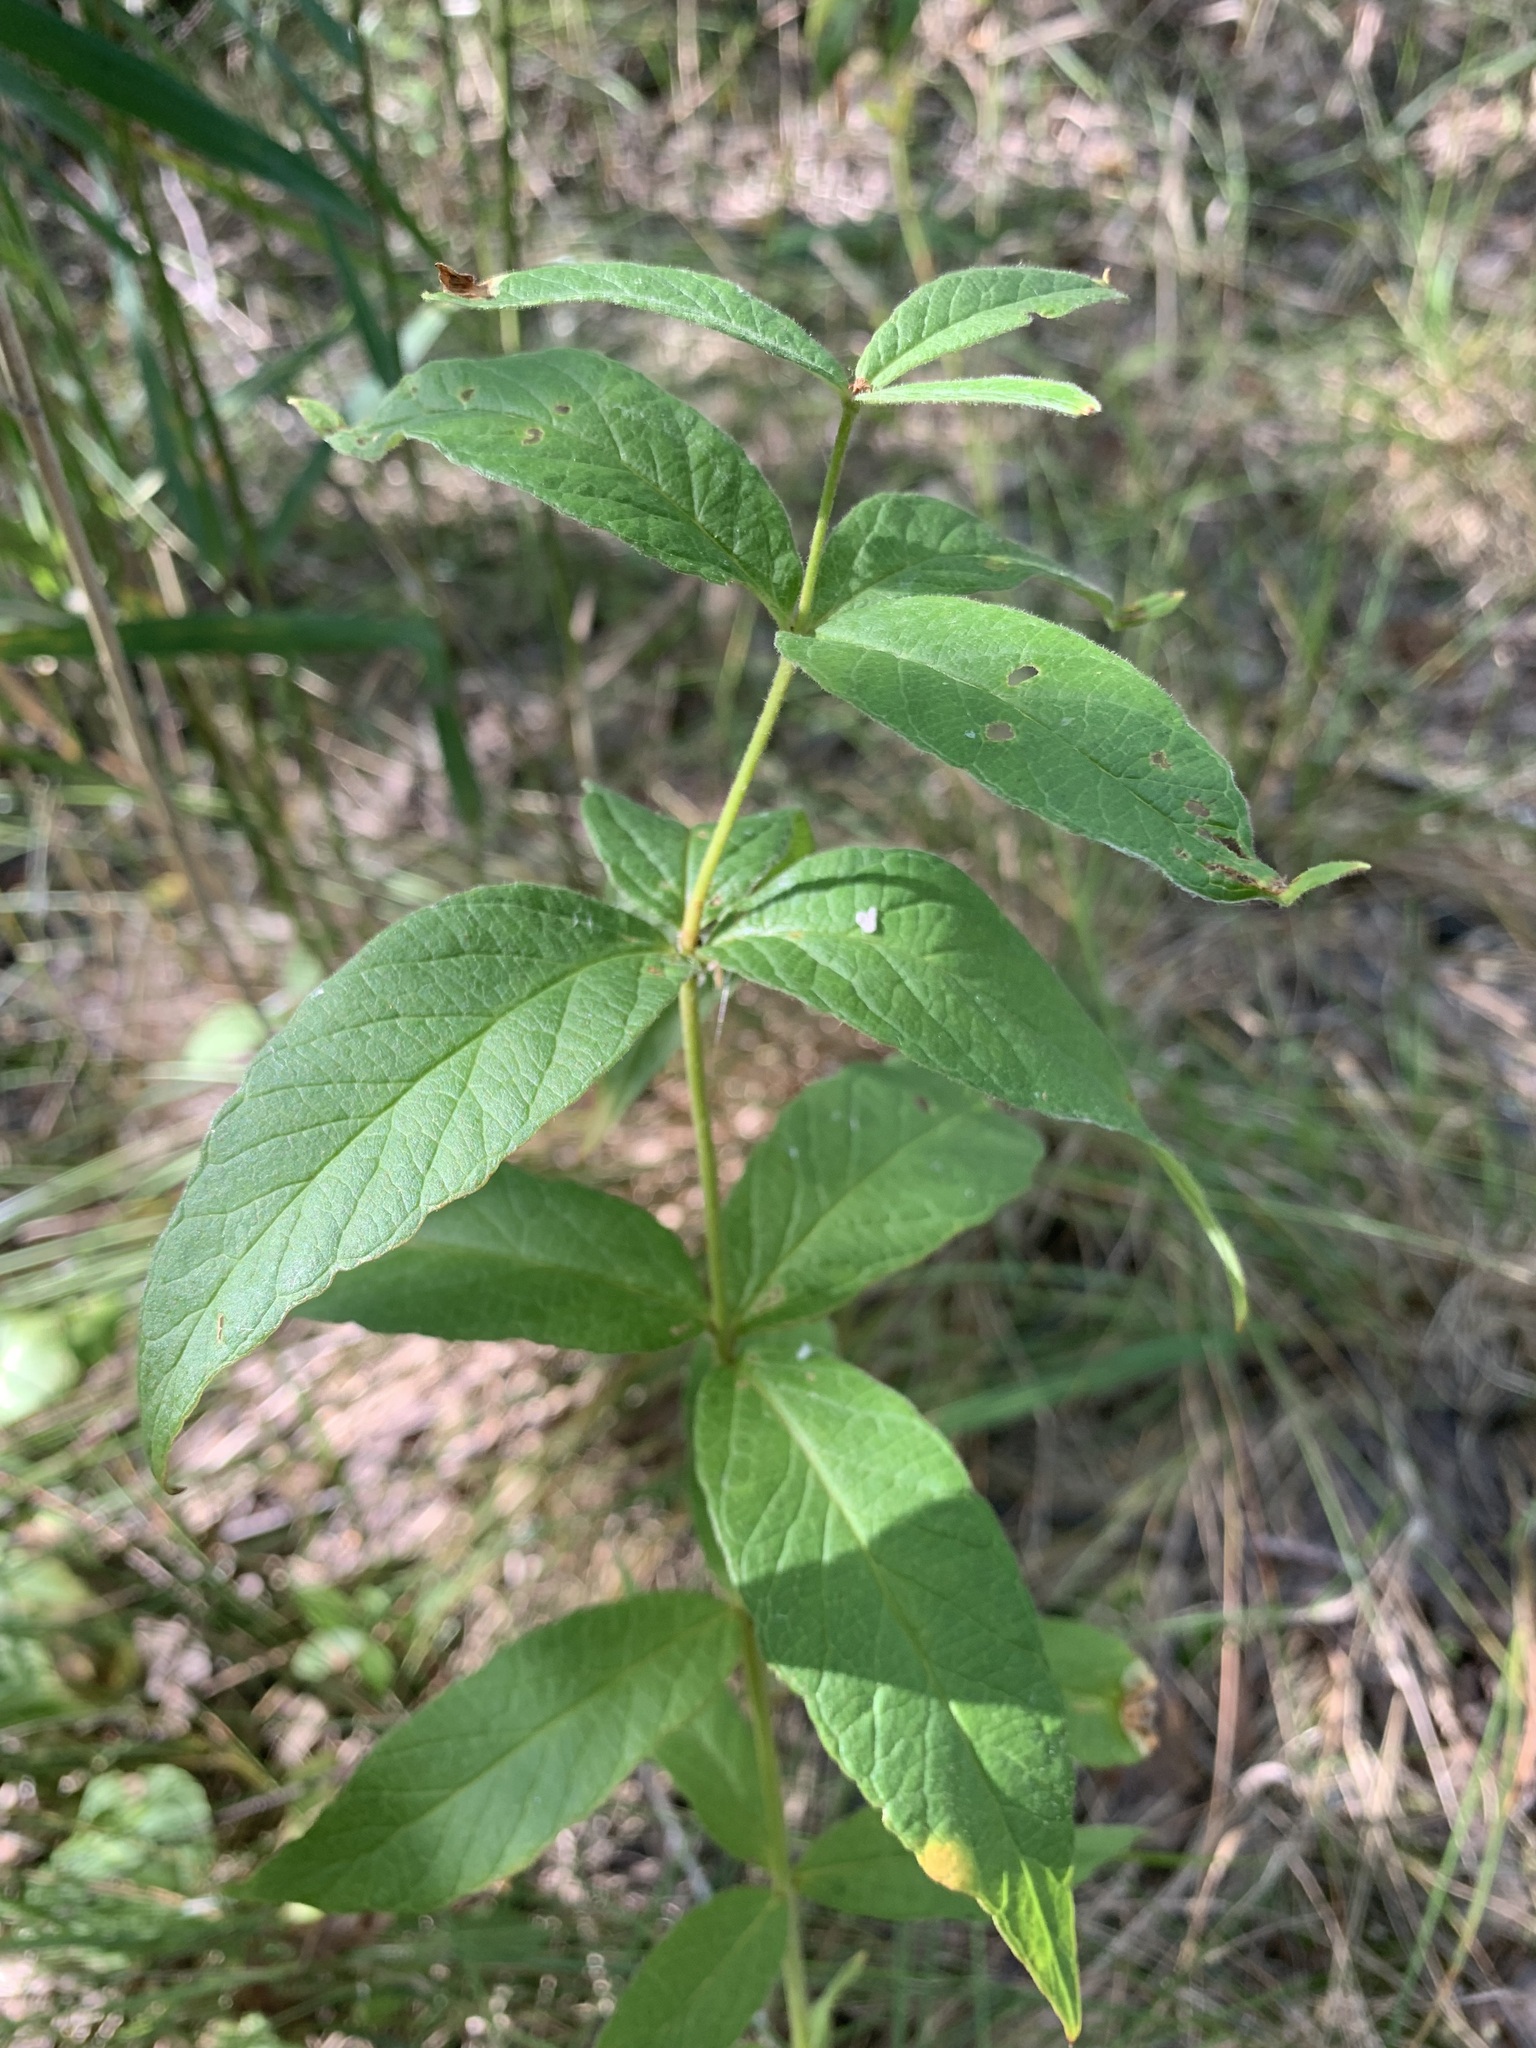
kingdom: Plantae
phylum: Tracheophyta
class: Magnoliopsida
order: Ericales
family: Primulaceae
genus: Lysimachia
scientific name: Lysimachia vulgaris
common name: Yellow loosestrife
